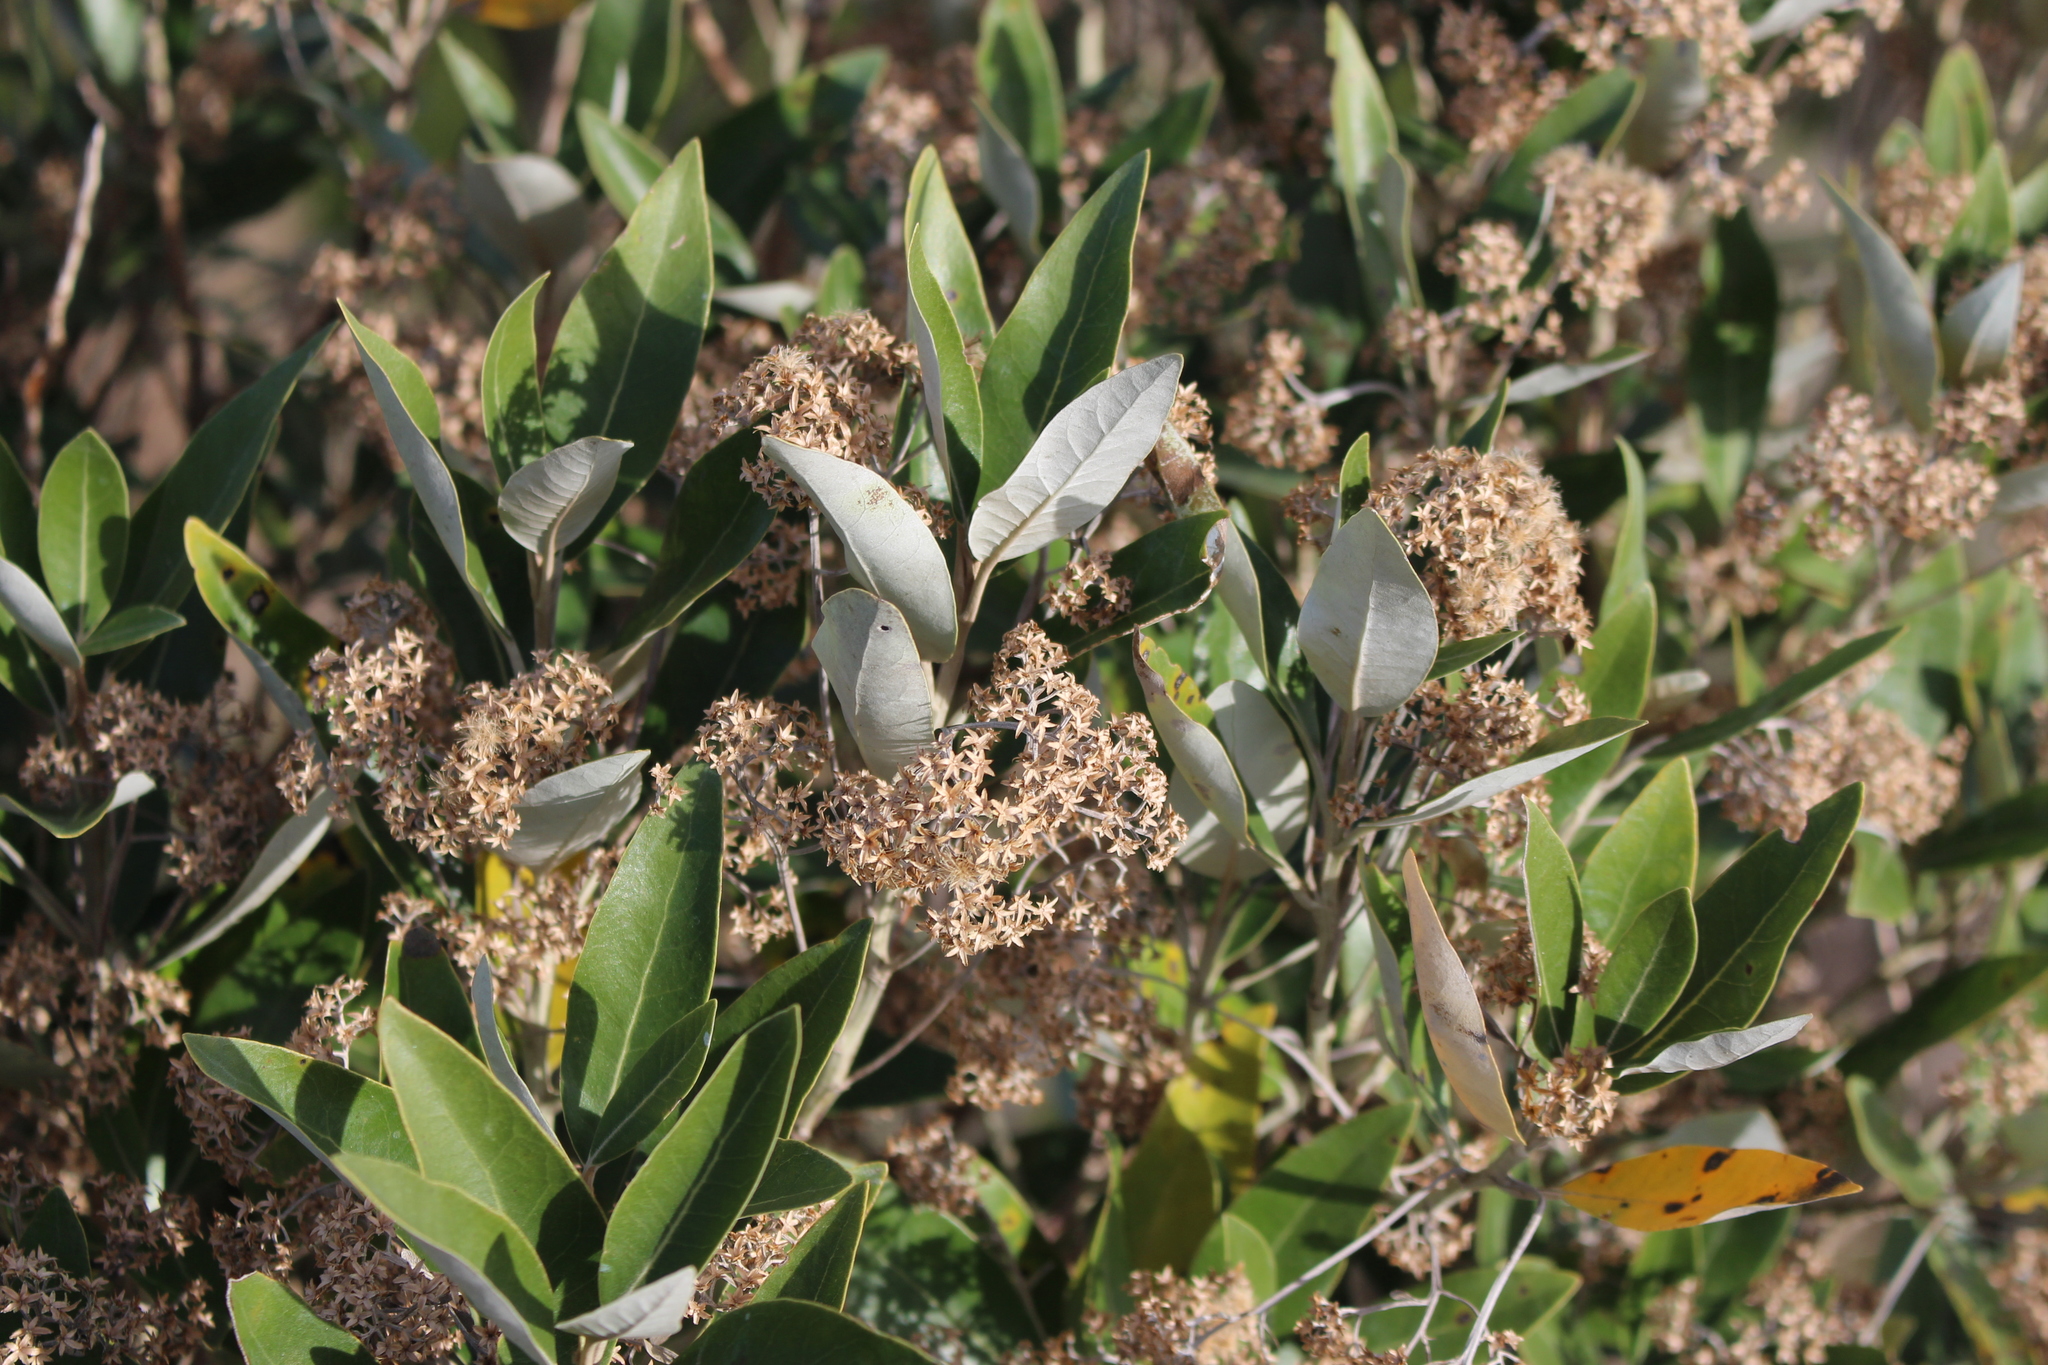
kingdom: Plantae
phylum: Tracheophyta
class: Magnoliopsida
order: Asterales
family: Asteraceae
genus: Olearia
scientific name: Olearia avicenniifolia
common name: Mangrove-leaf daisybush
